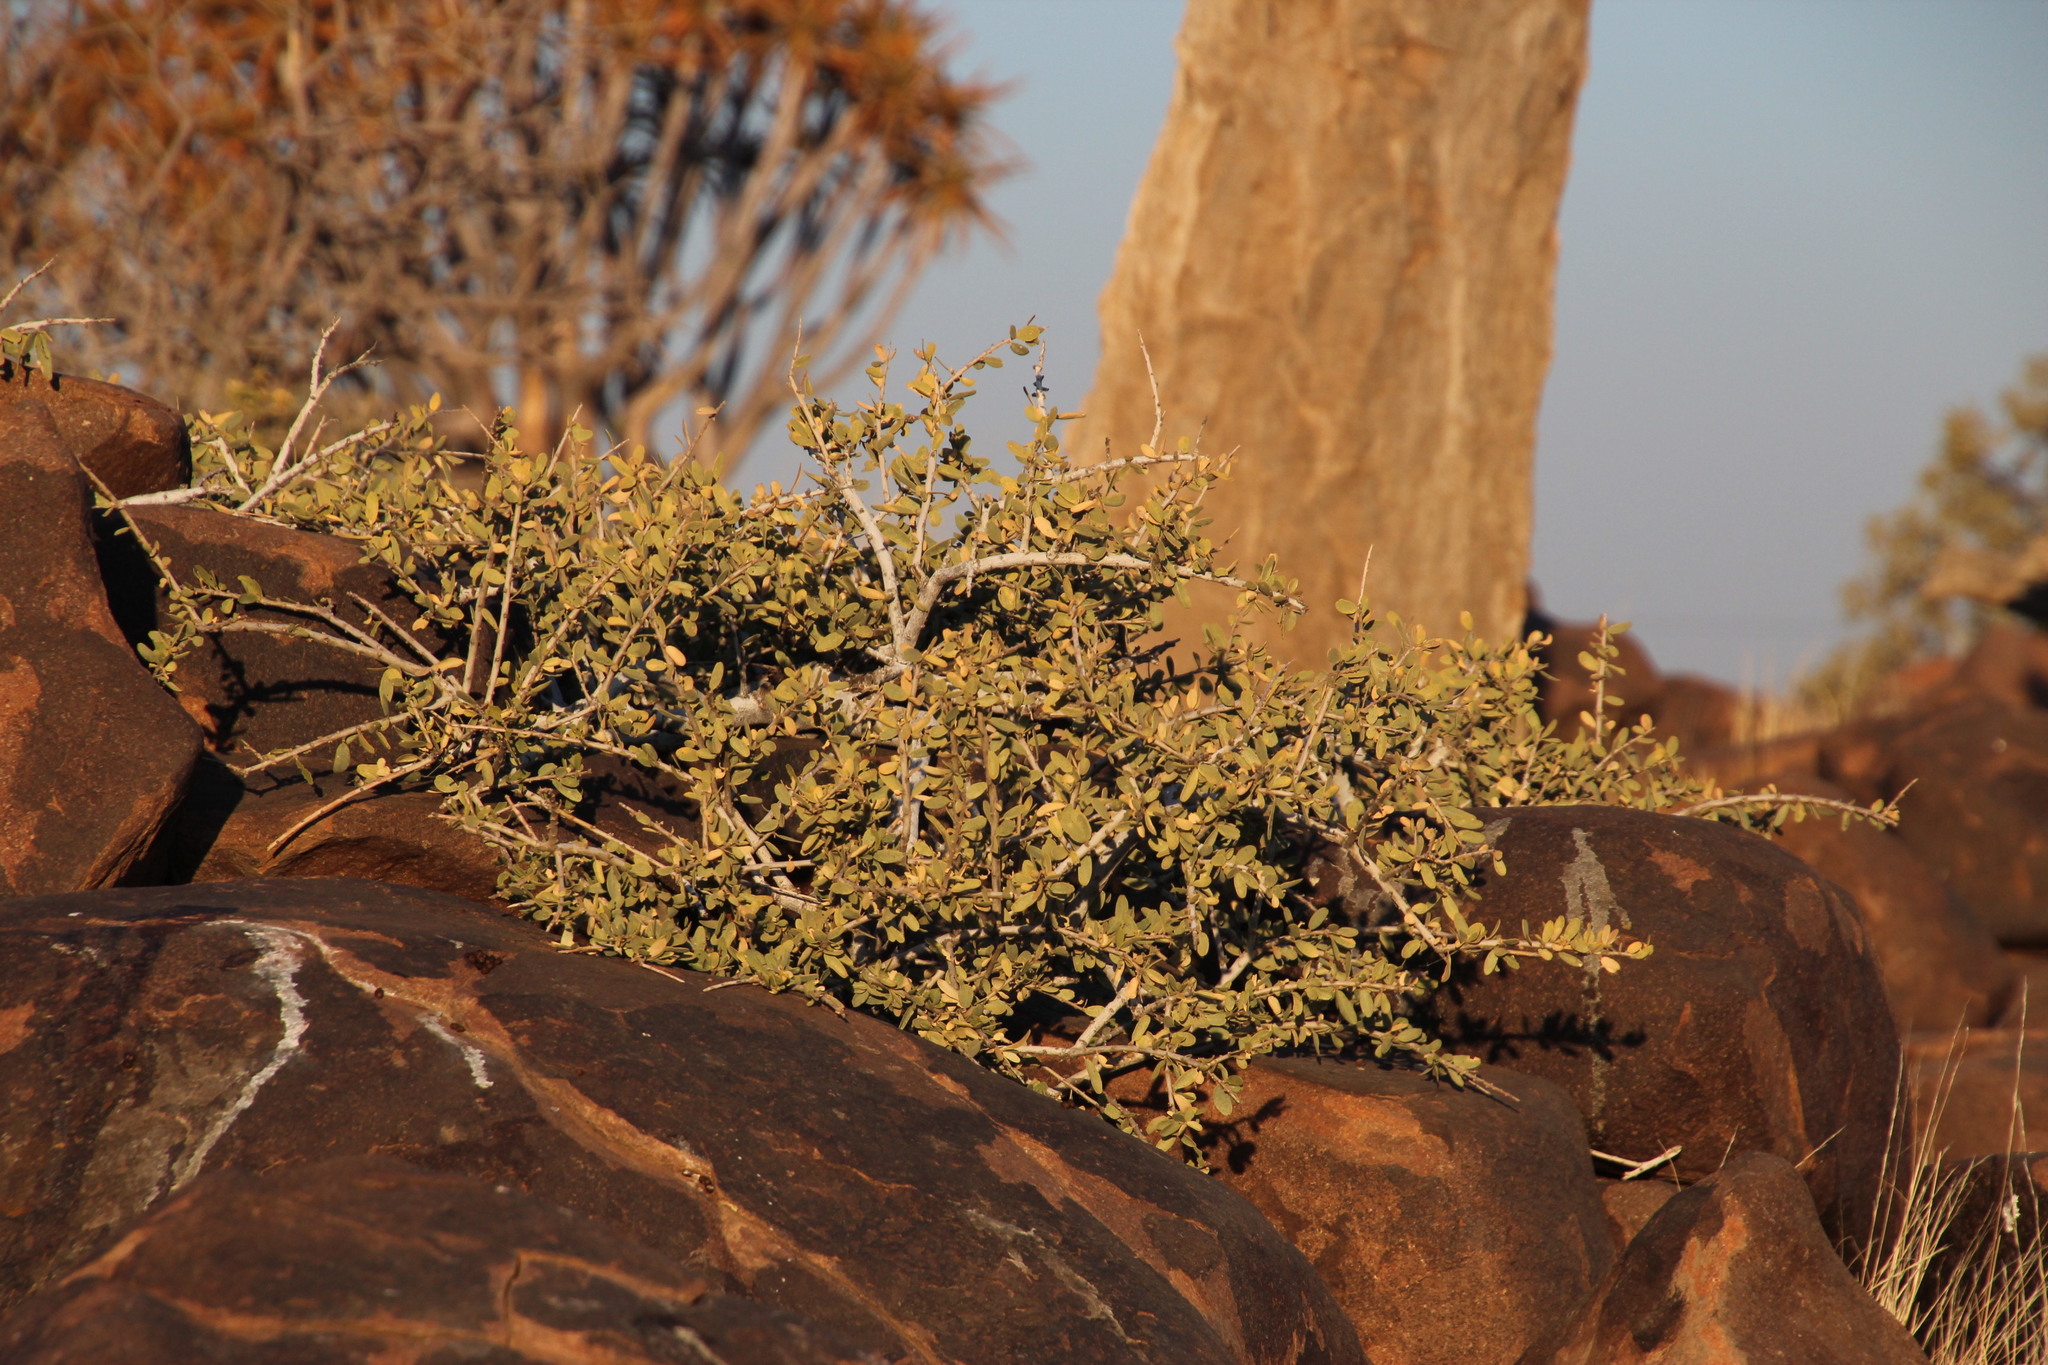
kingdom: Plantae
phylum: Tracheophyta
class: Magnoliopsida
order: Brassicales
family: Capparaceae
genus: Boscia
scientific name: Boscia albitrunca
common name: Caper bush
